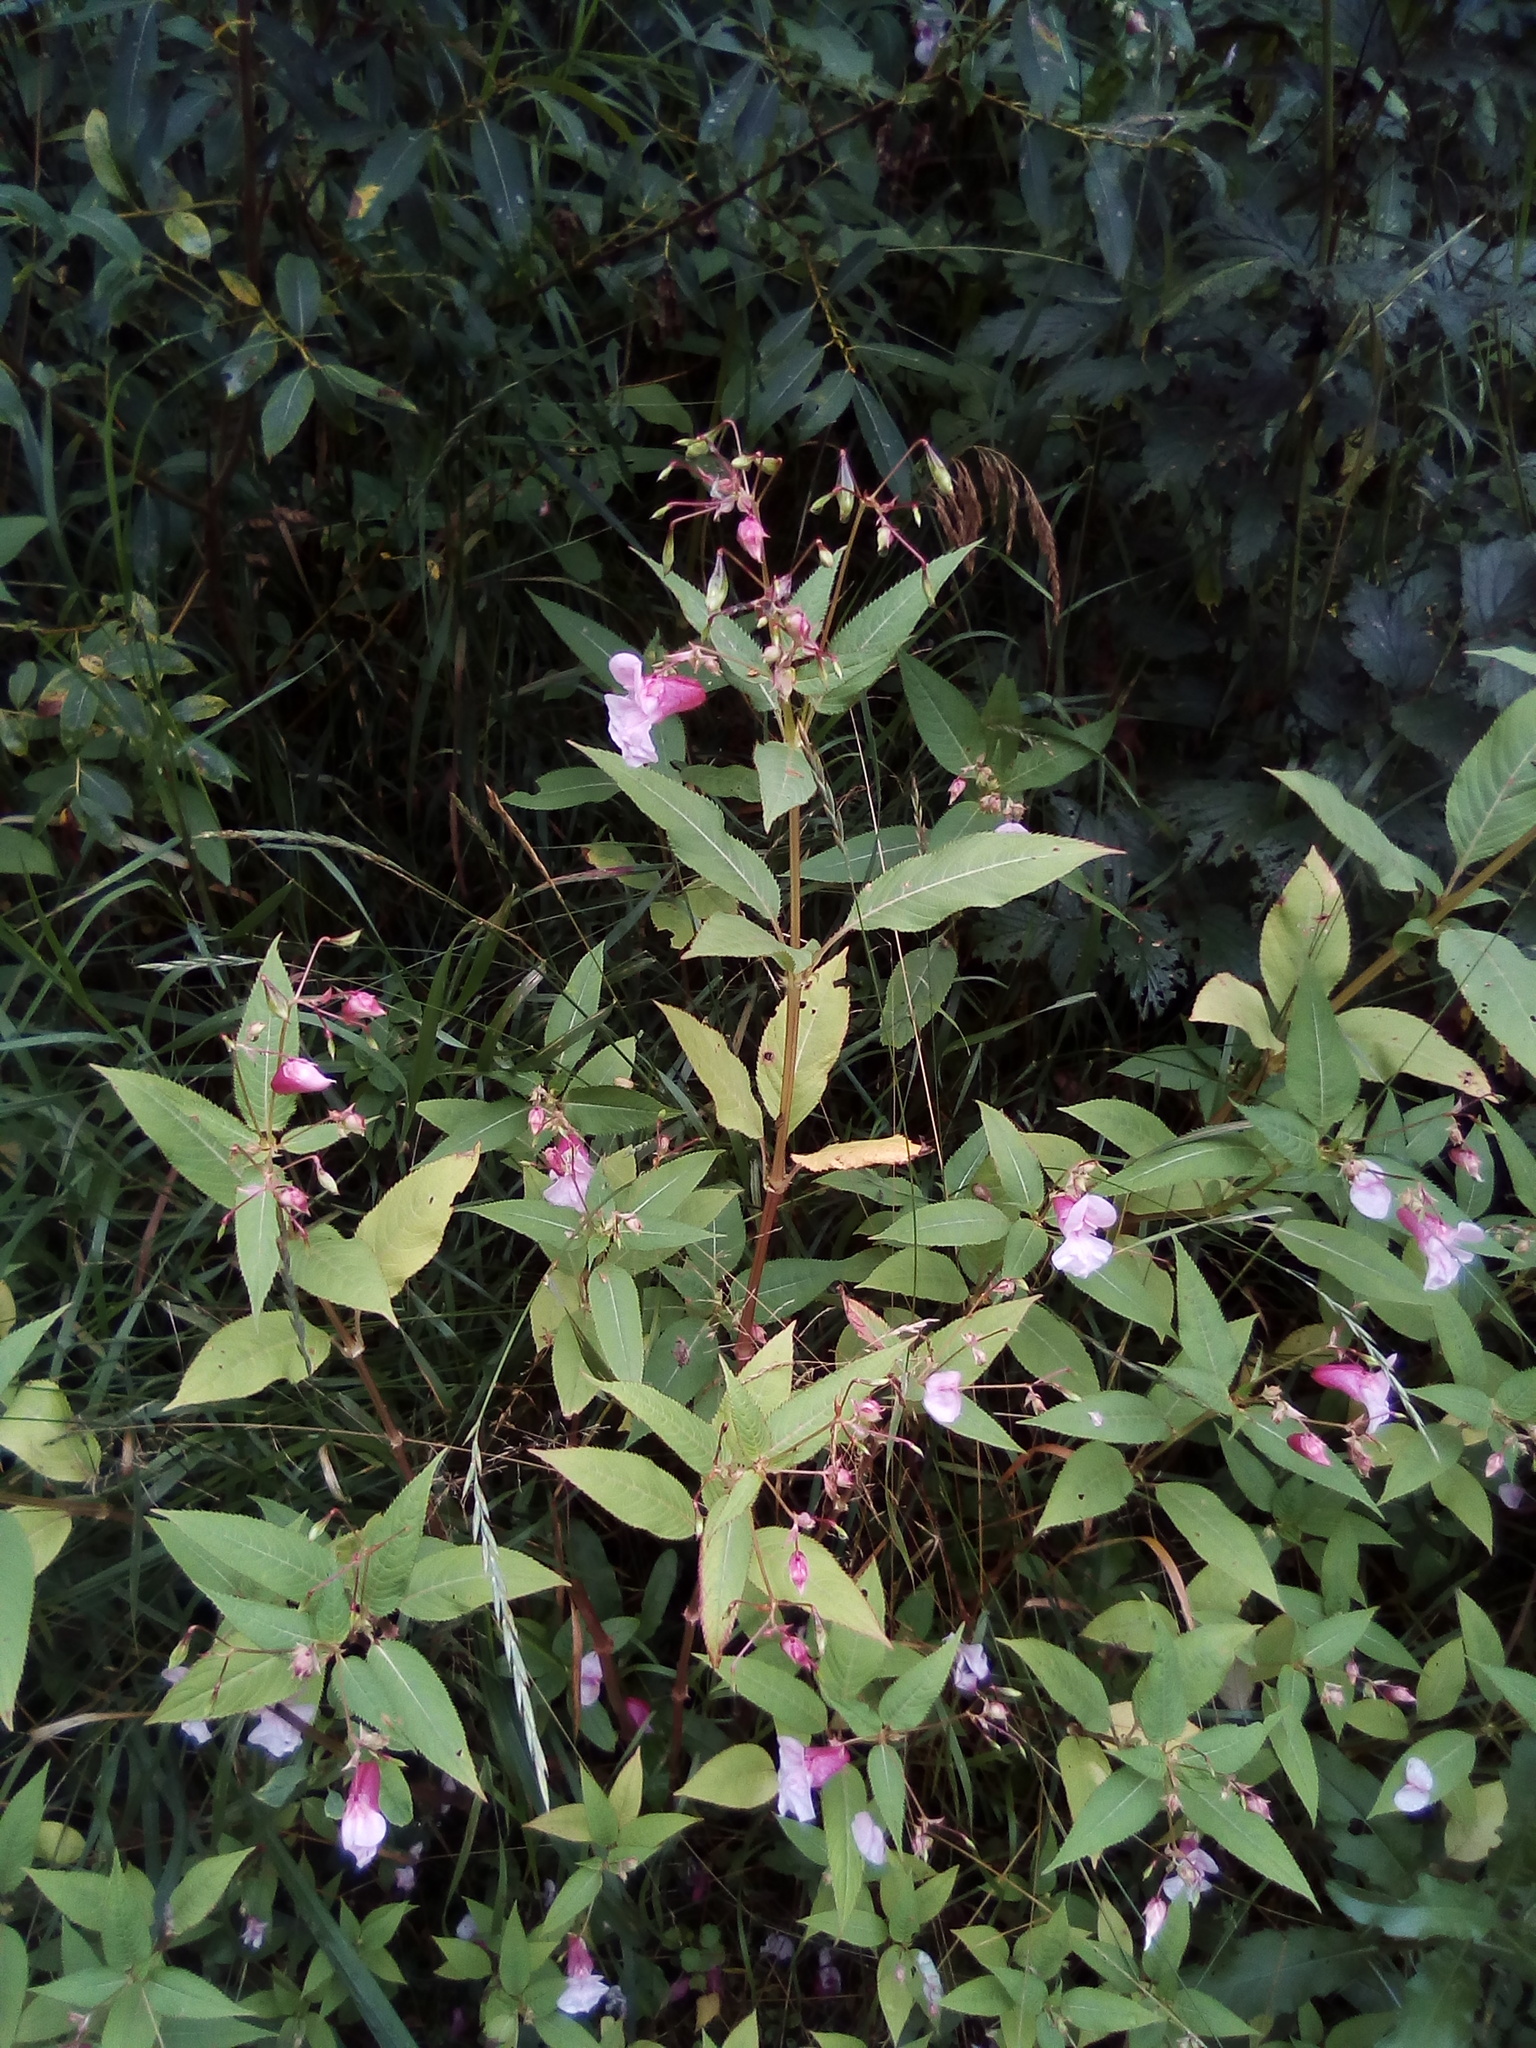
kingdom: Plantae
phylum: Tracheophyta
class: Magnoliopsida
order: Ericales
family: Balsaminaceae
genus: Impatiens
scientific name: Impatiens glandulifera
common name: Himalayan balsam
